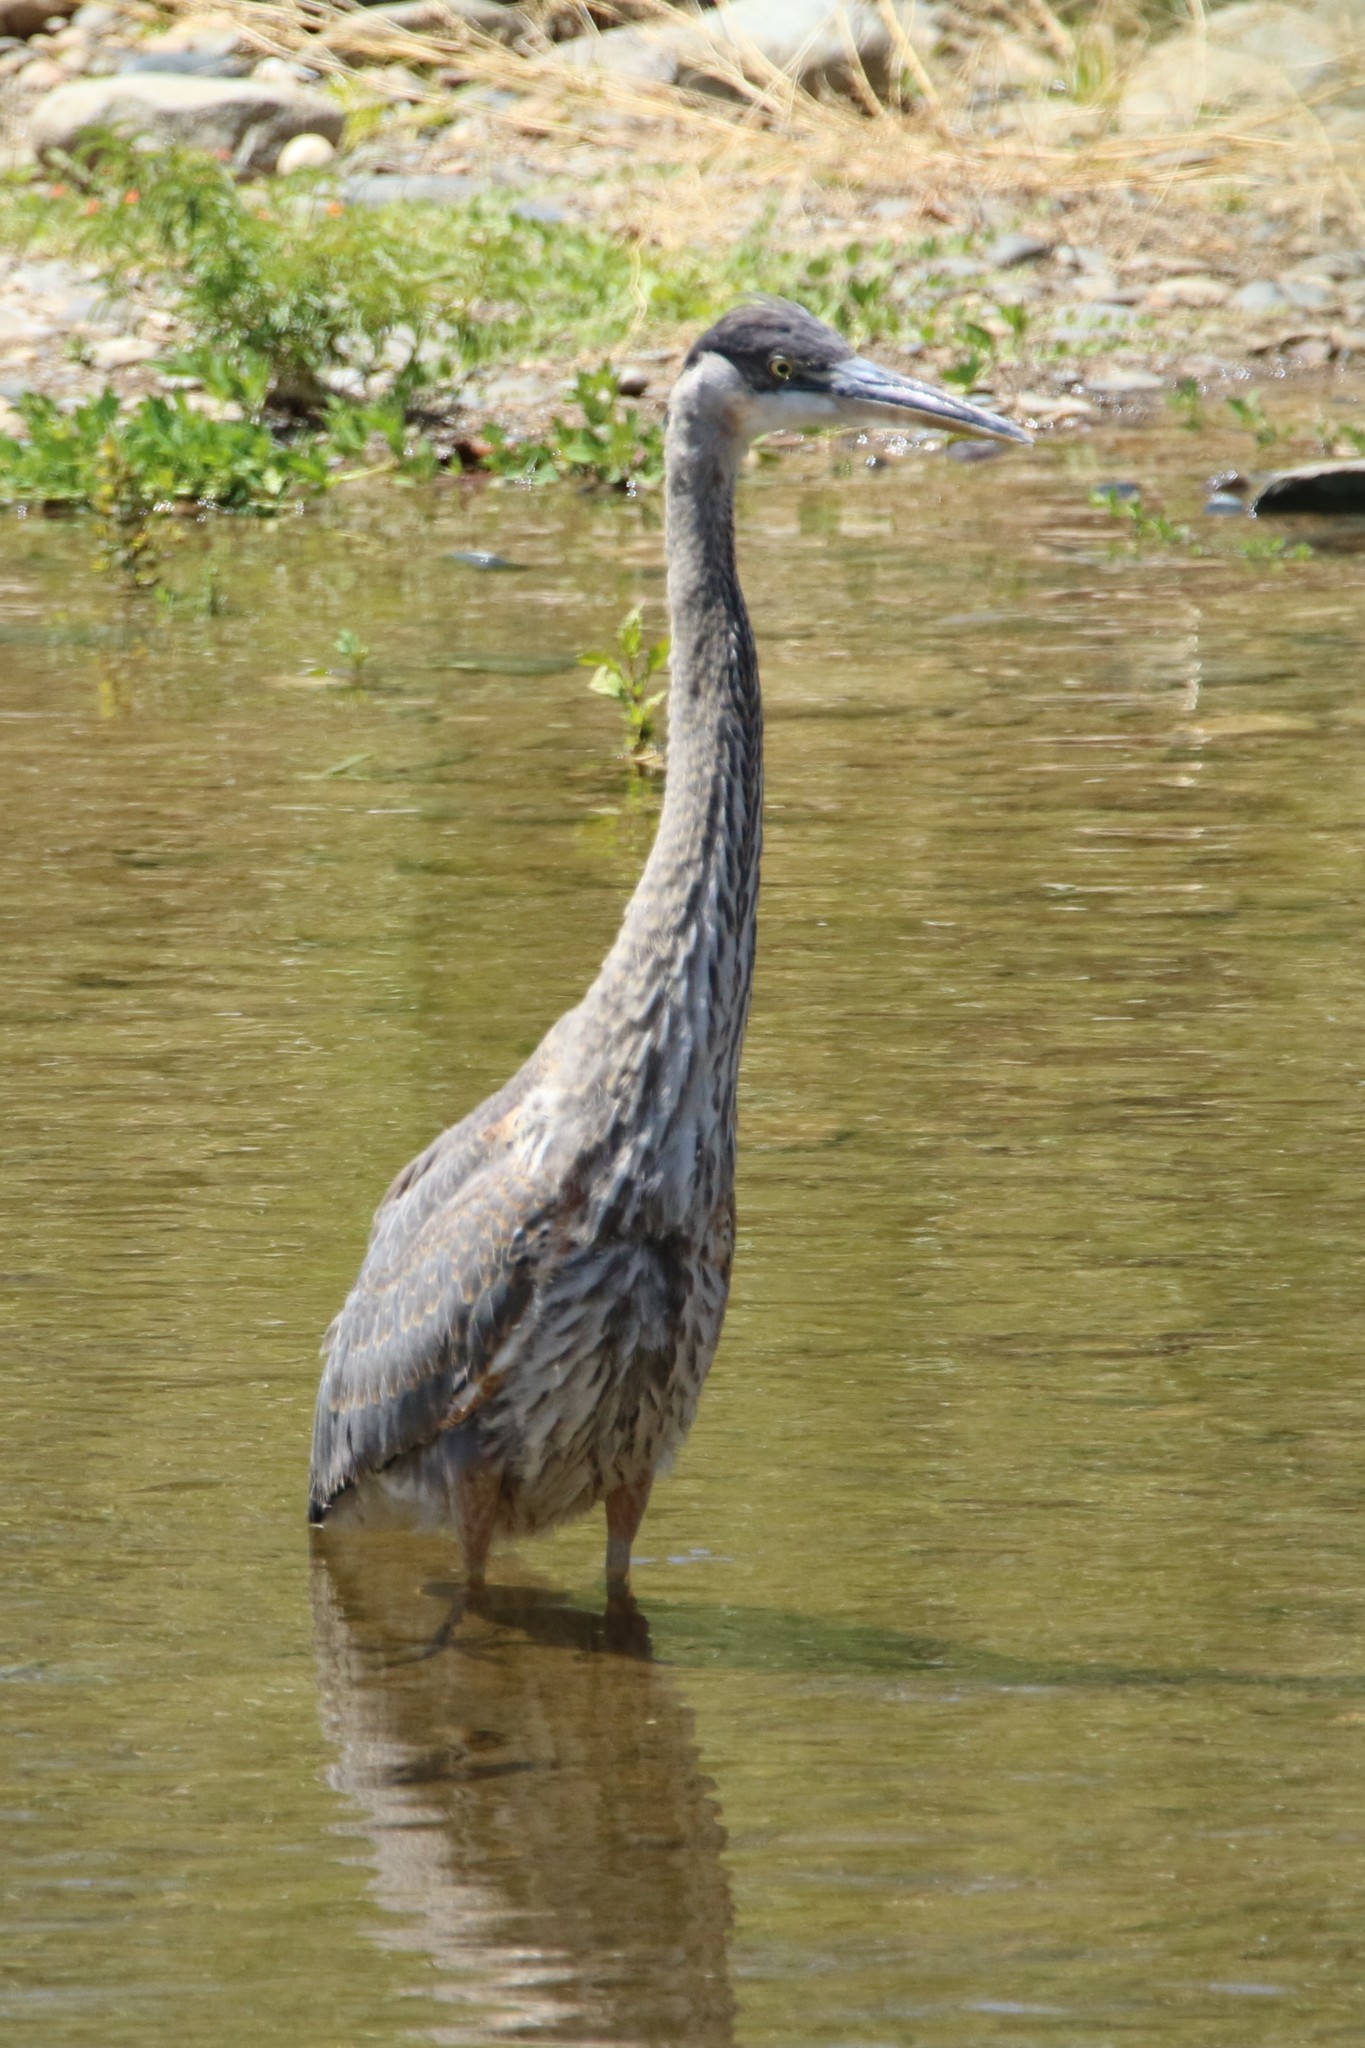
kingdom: Animalia
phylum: Chordata
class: Aves
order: Pelecaniformes
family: Ardeidae
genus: Ardea
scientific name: Ardea herodias
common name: Great blue heron
